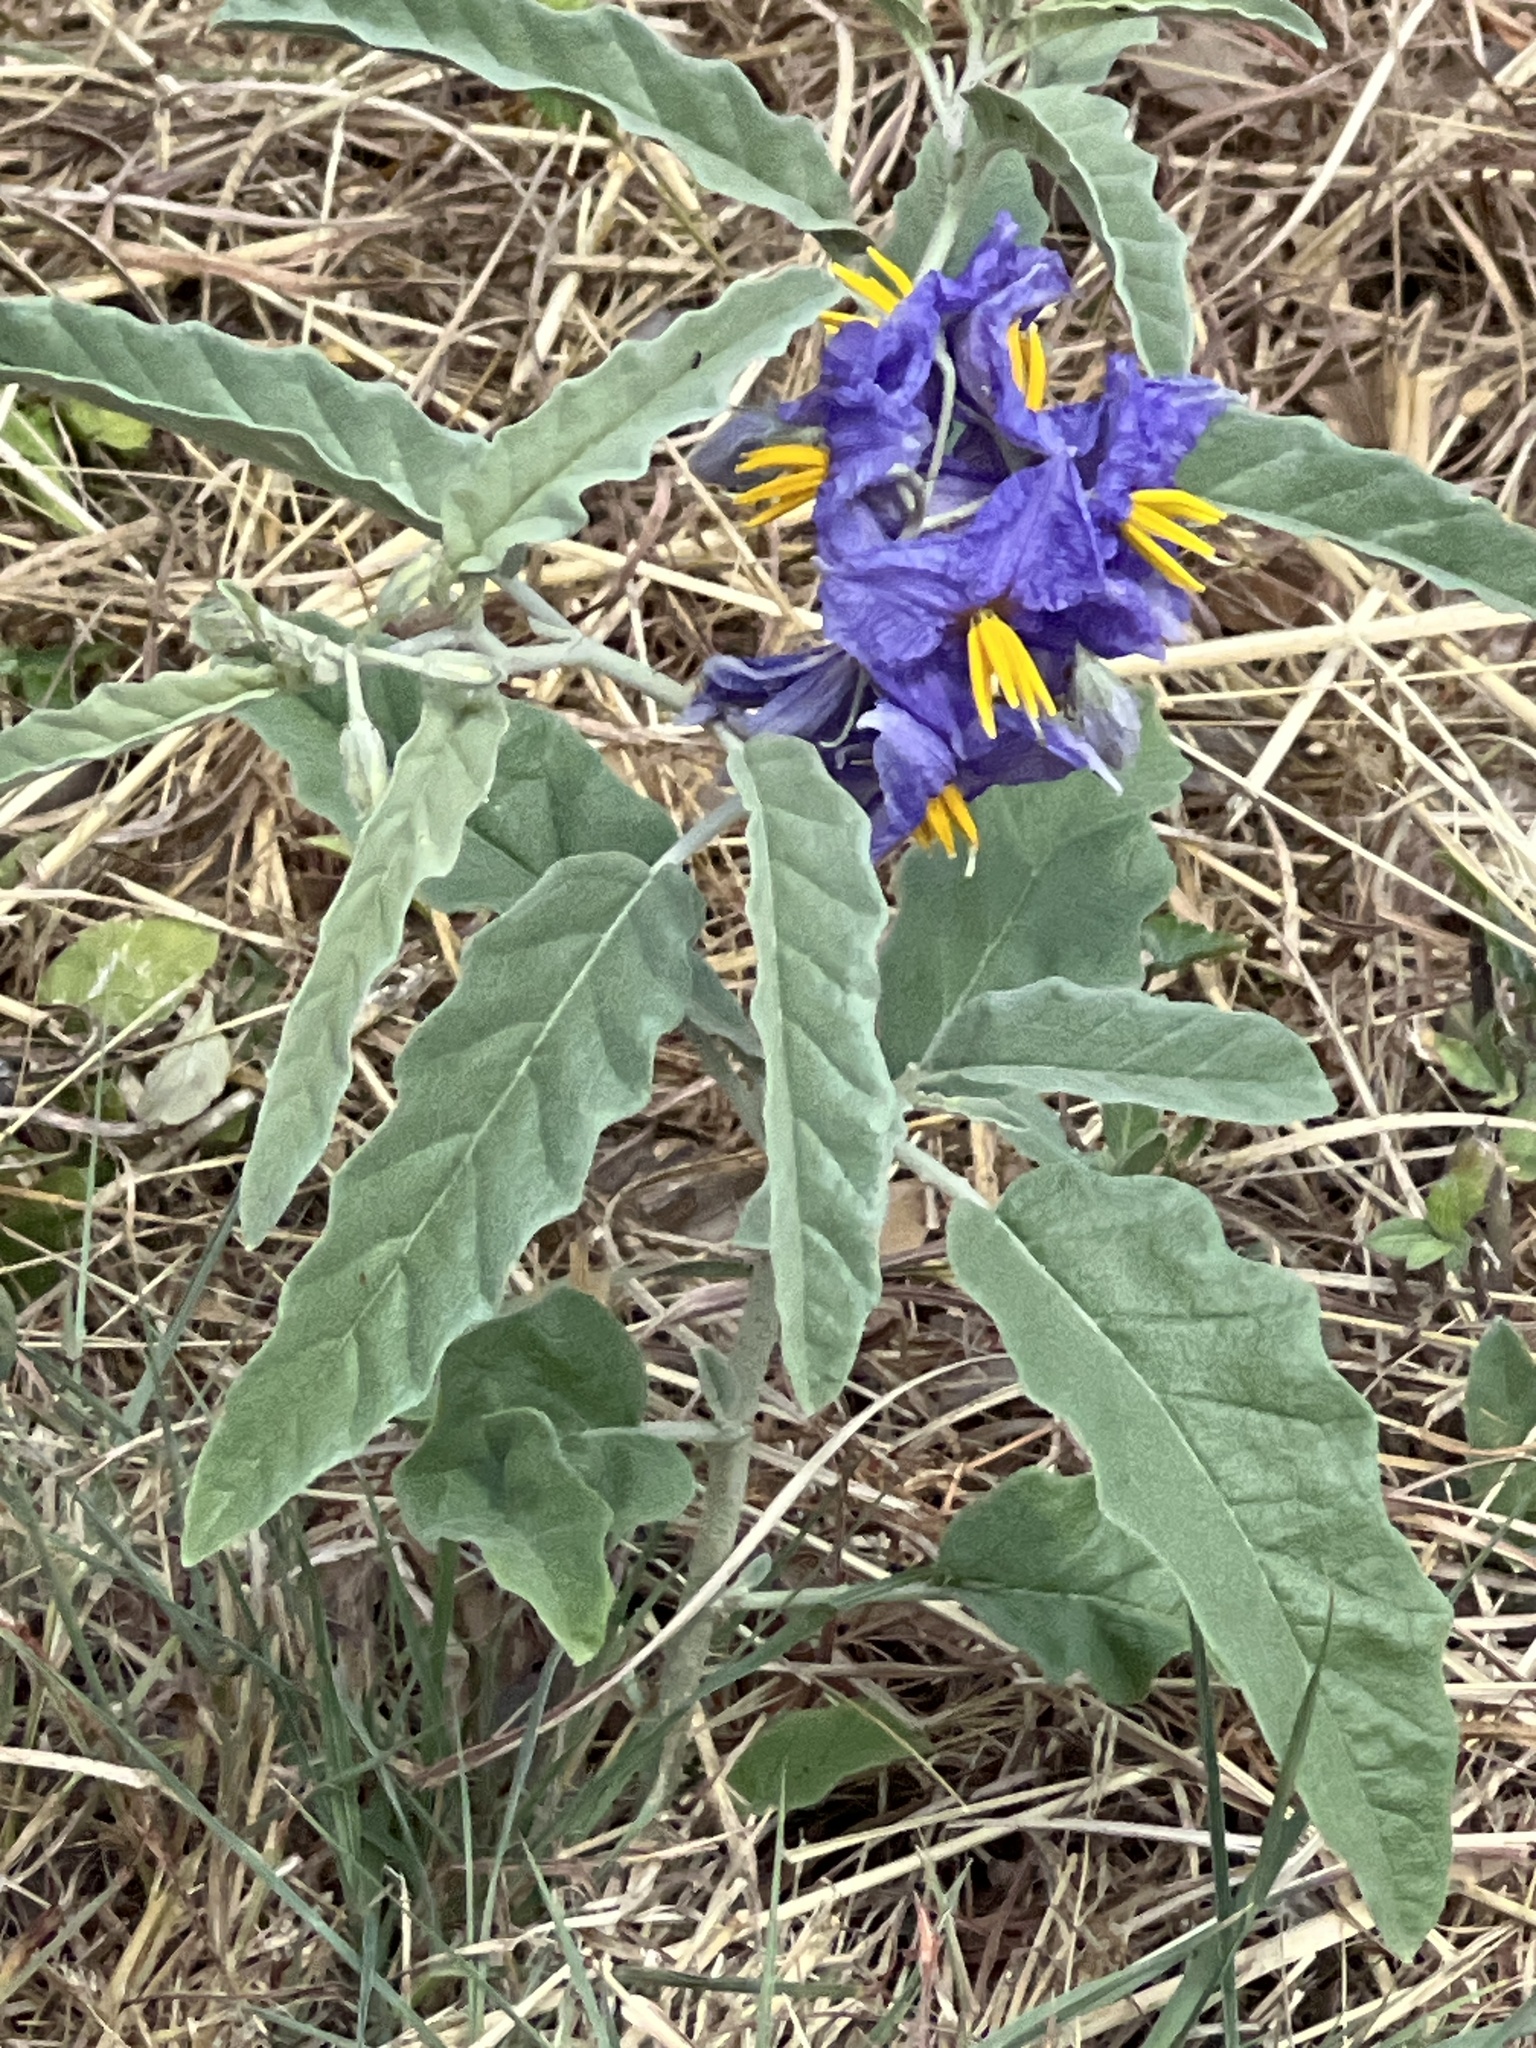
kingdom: Plantae
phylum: Tracheophyta
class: Magnoliopsida
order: Solanales
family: Solanaceae
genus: Solanum
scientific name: Solanum elaeagnifolium
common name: Silverleaf nightshade
